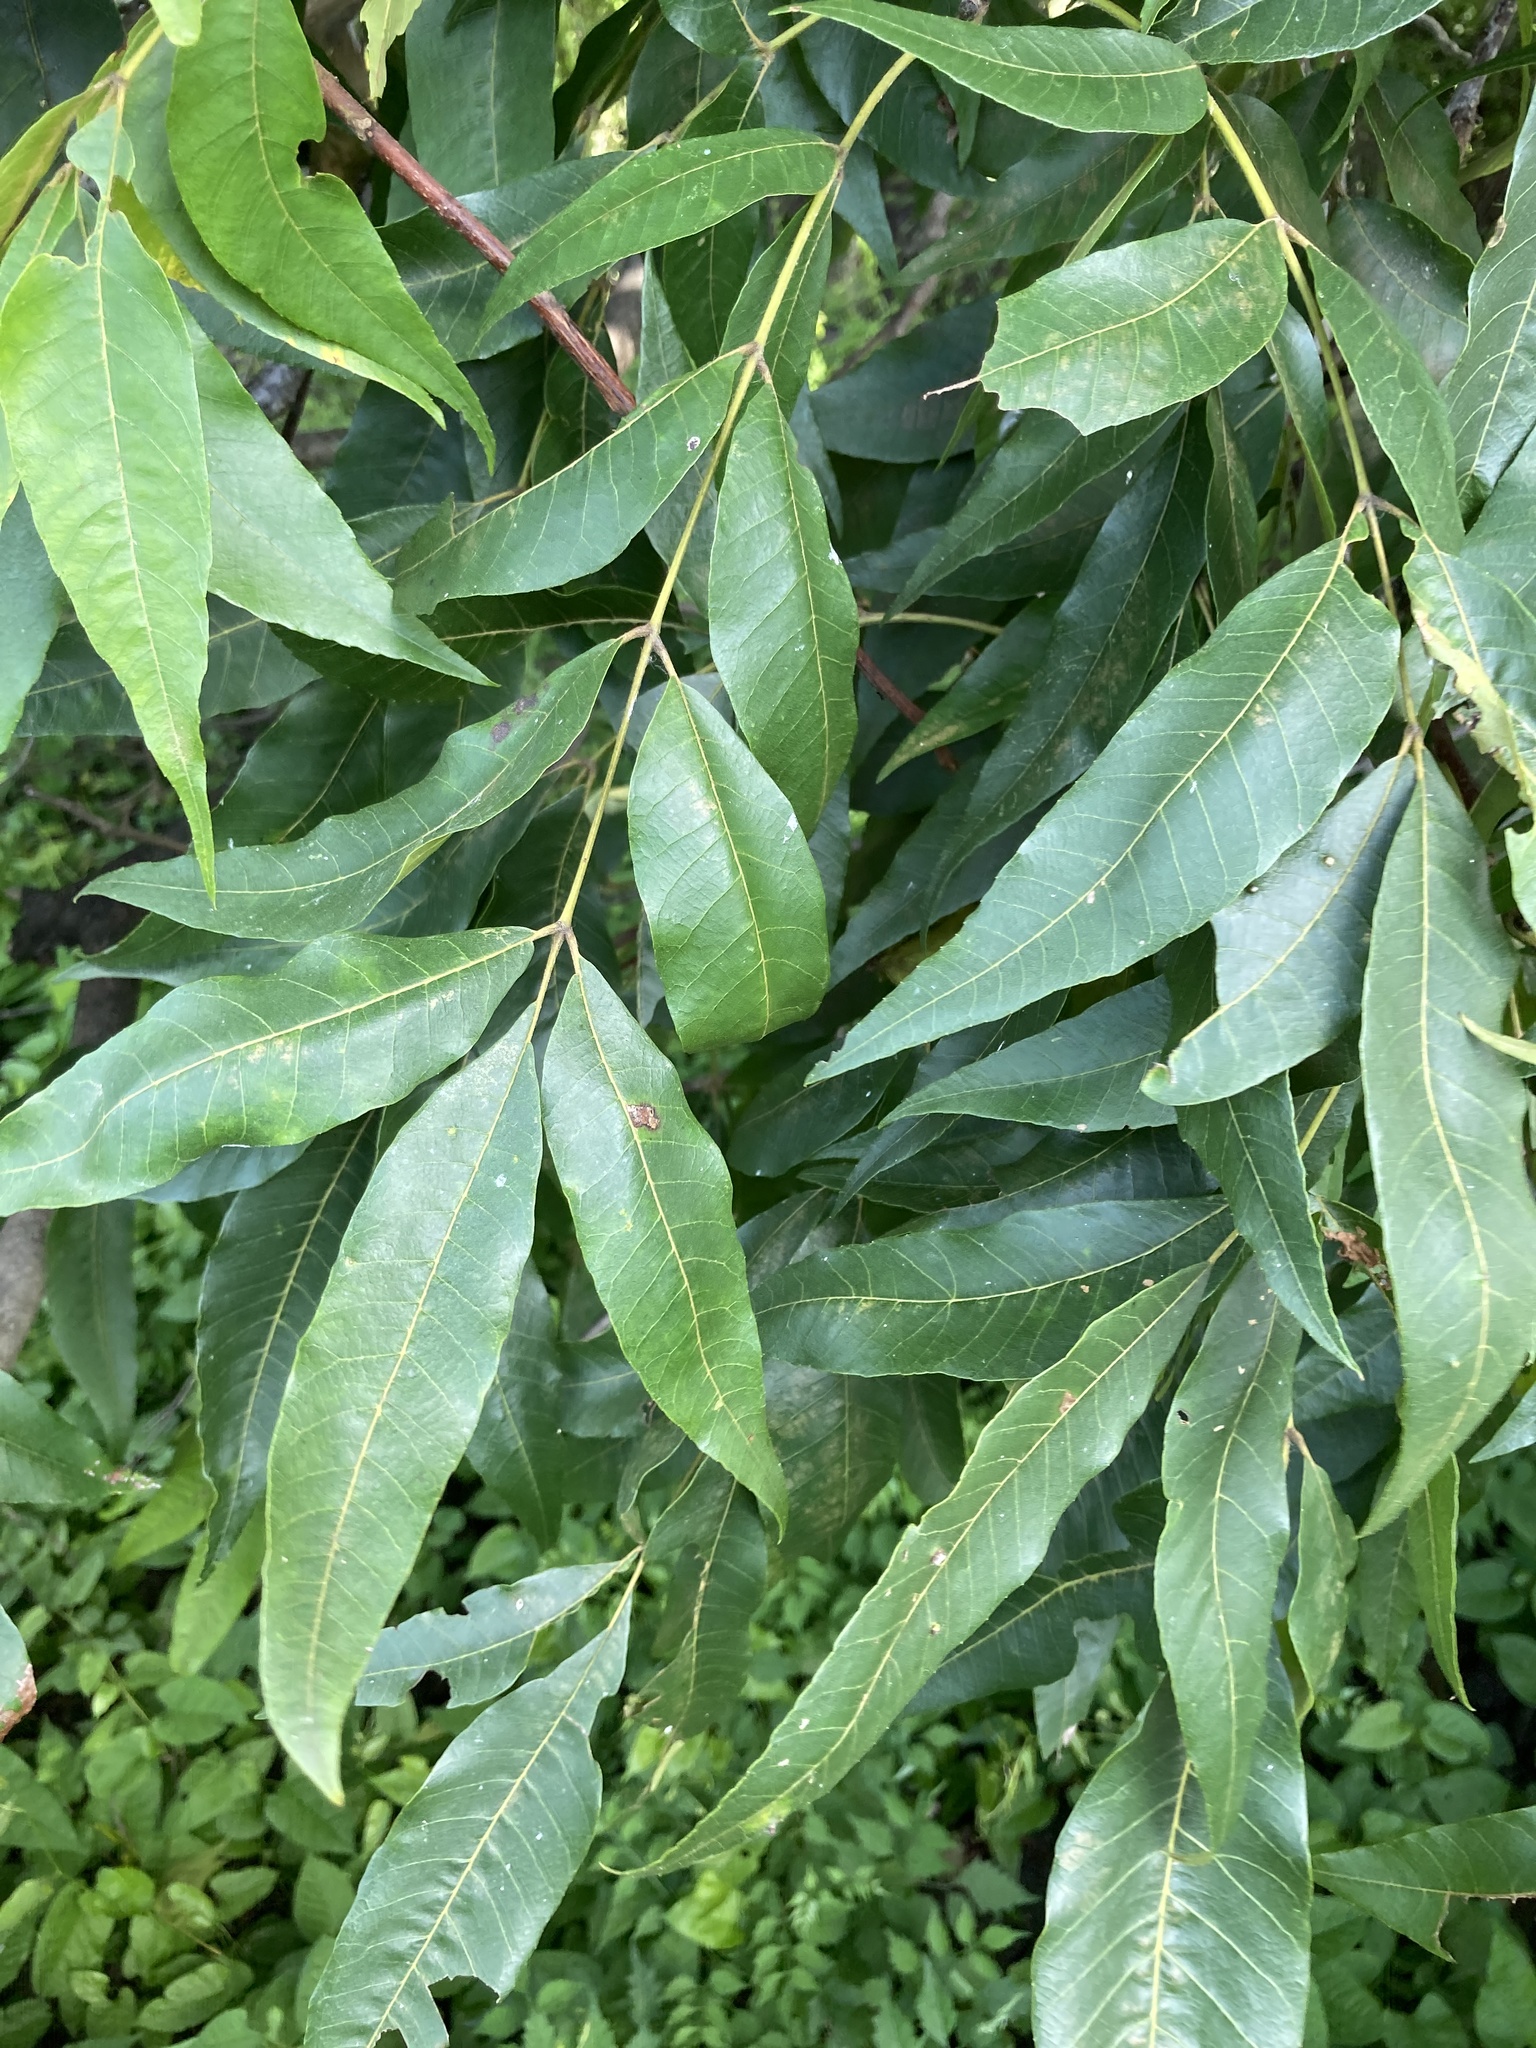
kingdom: Plantae
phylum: Tracheophyta
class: Magnoliopsida
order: Fagales
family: Juglandaceae
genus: Carya
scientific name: Carya aquatica
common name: Water hickory
